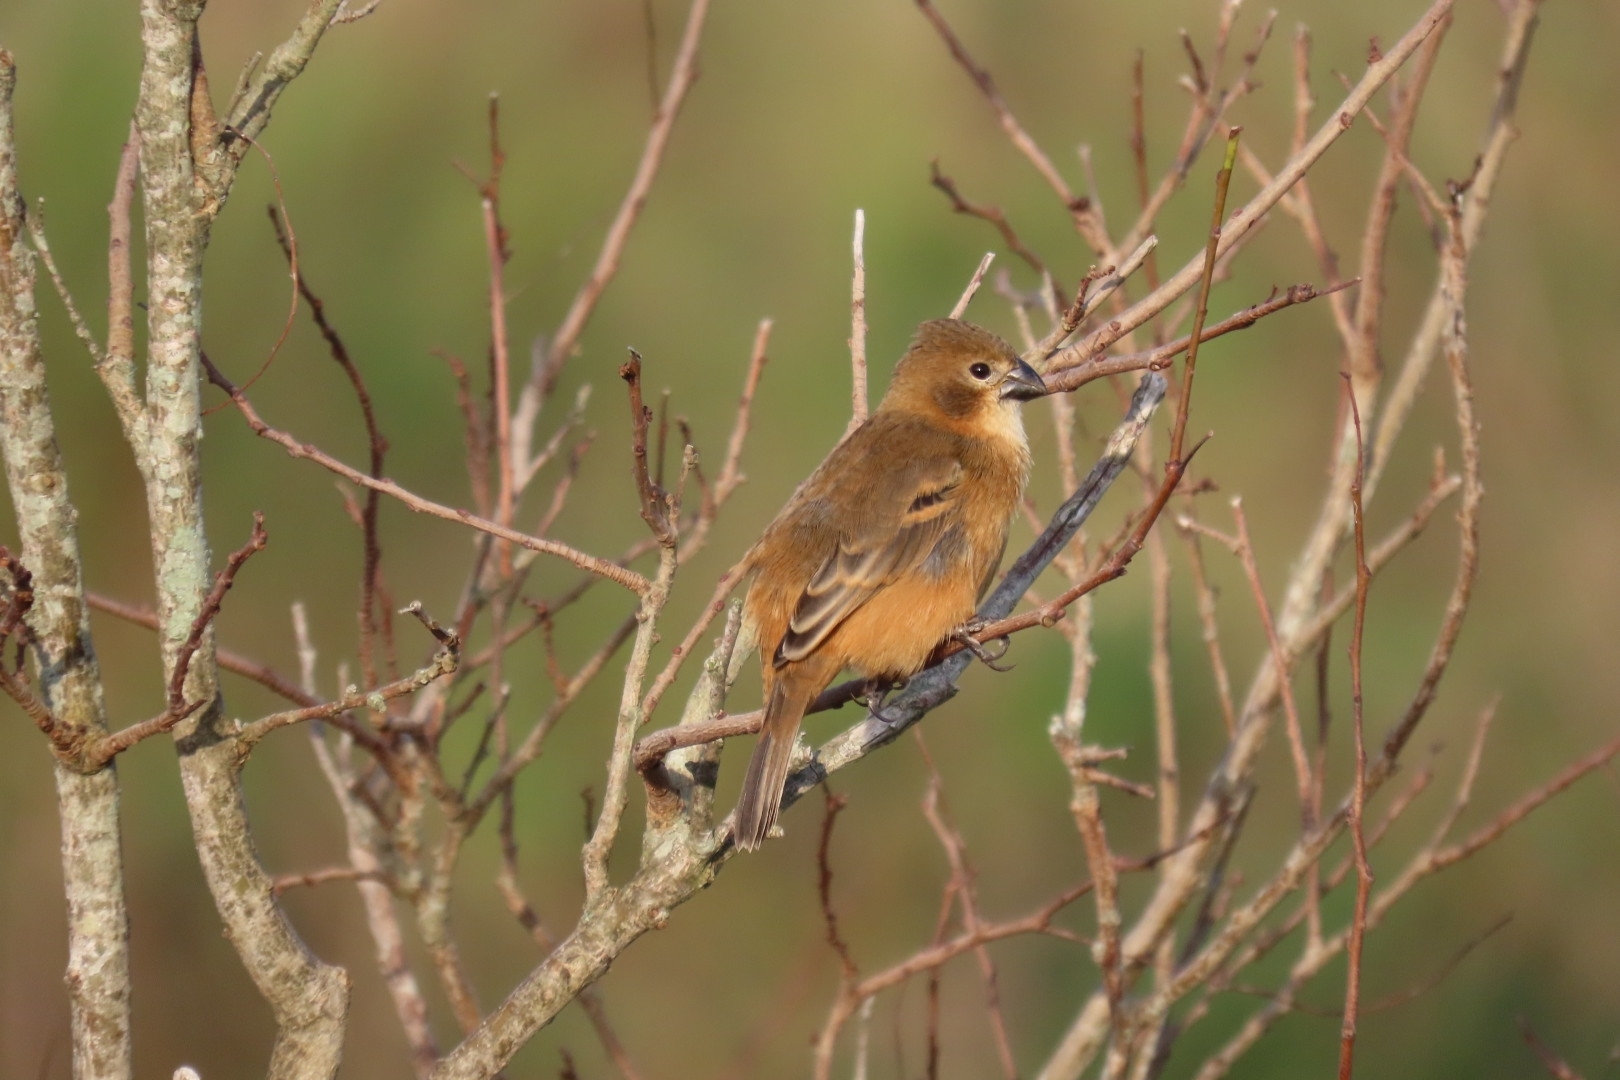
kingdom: Animalia
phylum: Chordata
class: Aves
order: Passeriformes
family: Thraupidae
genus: Sporophila
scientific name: Sporophila collaris
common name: Rusty-collared seedeater
